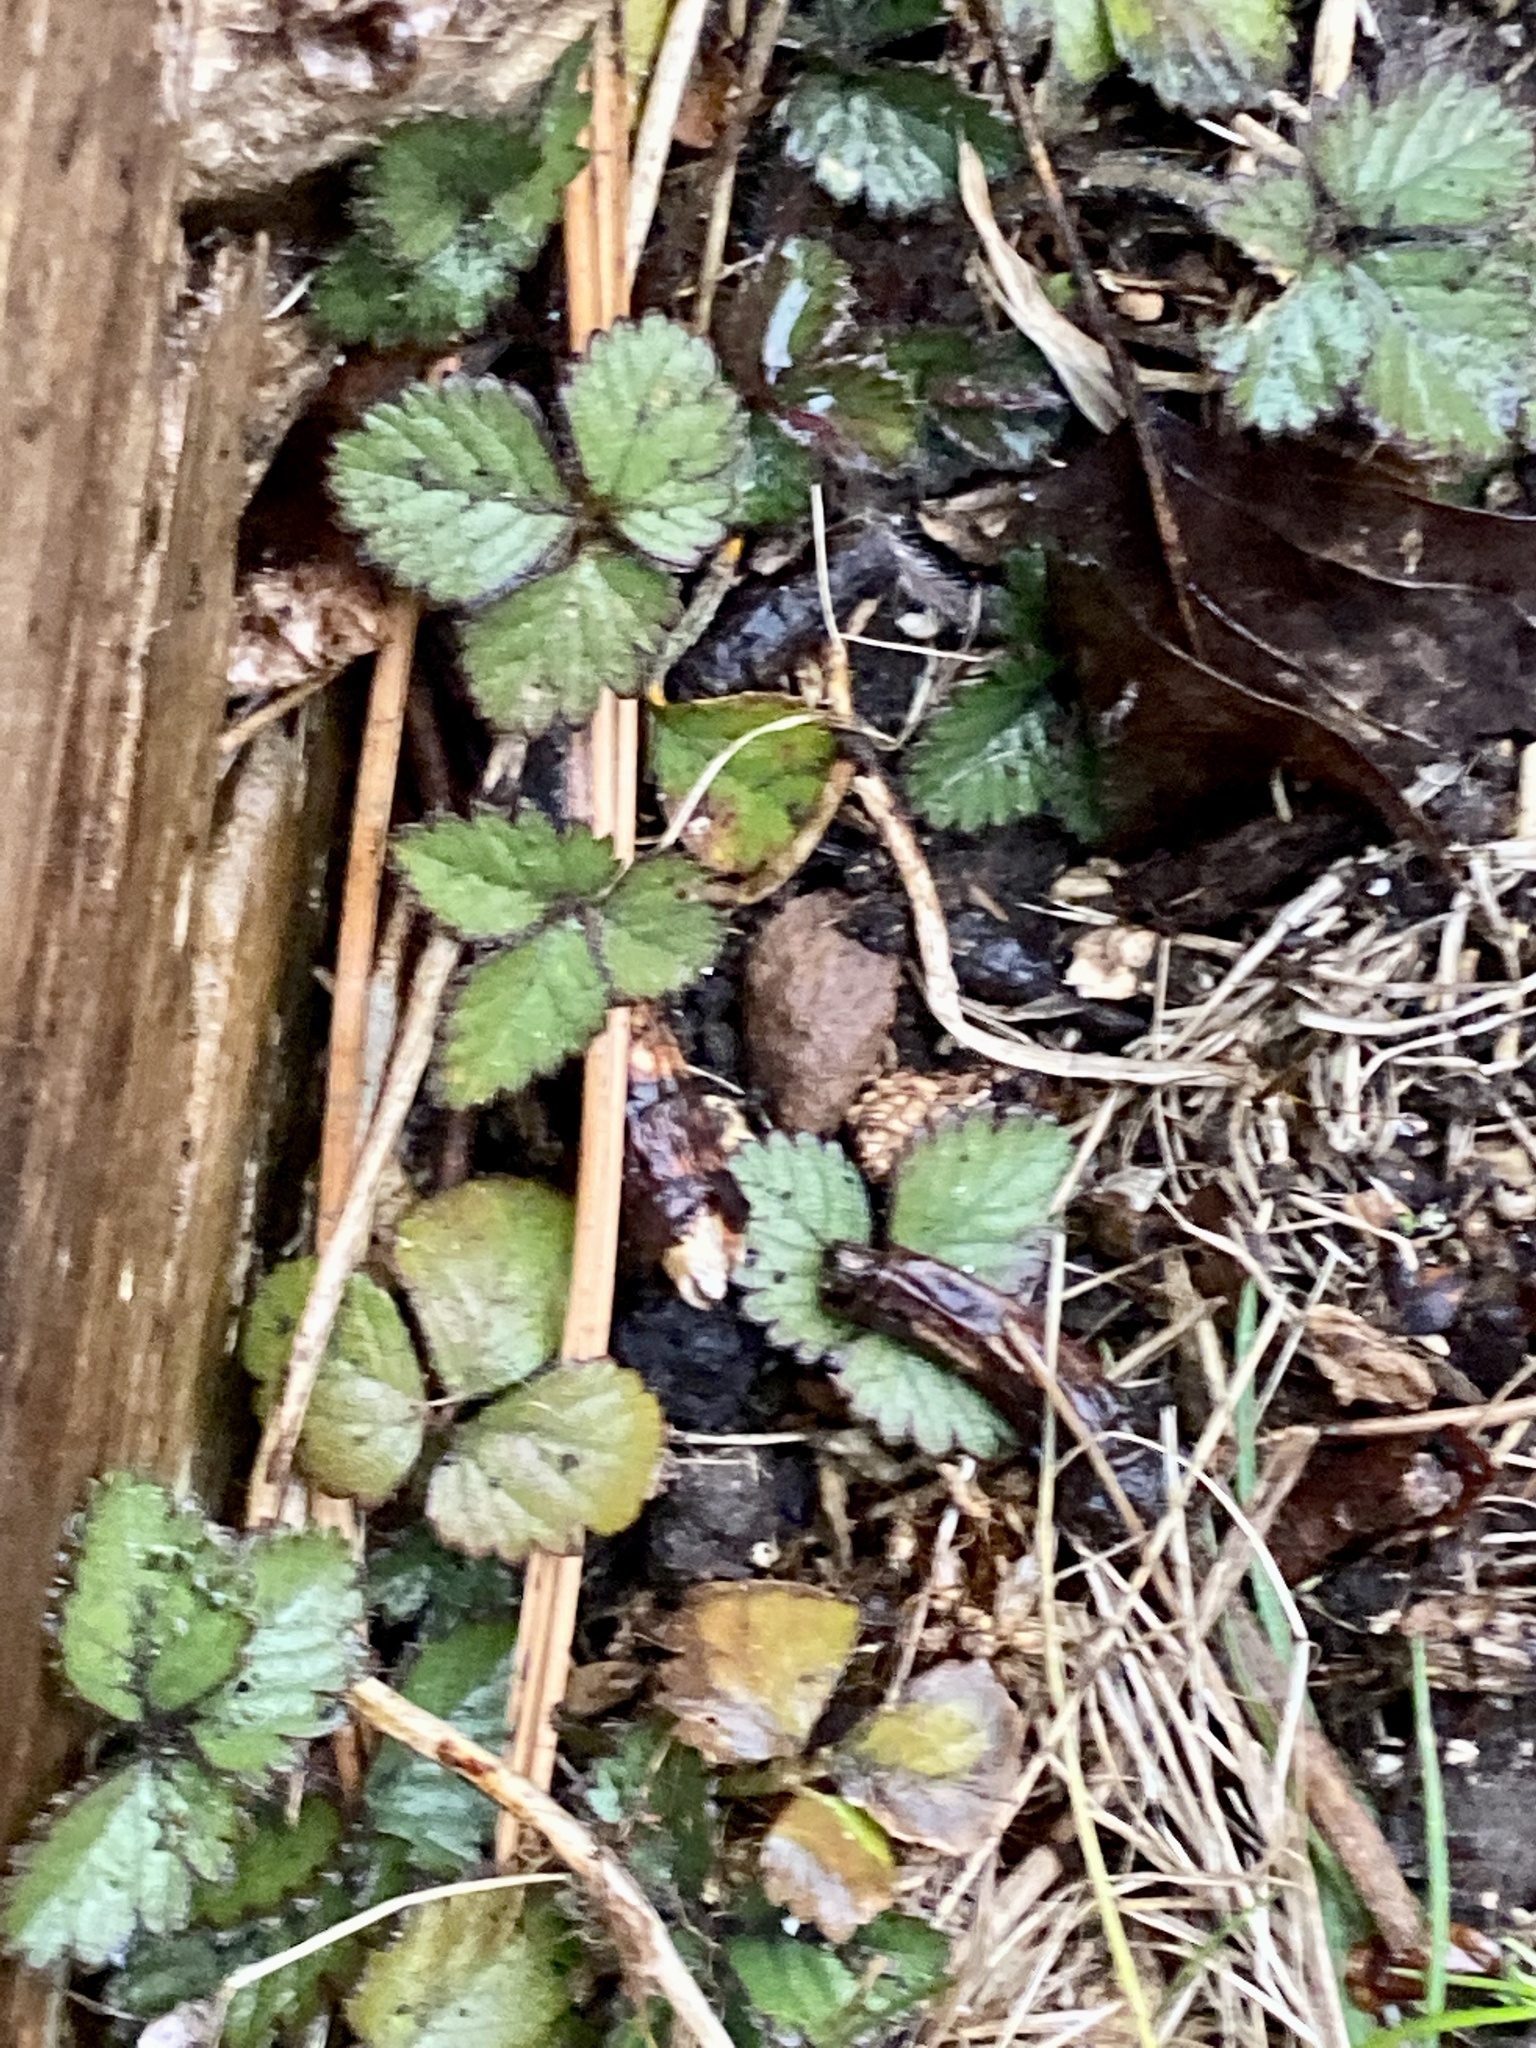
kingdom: Plantae
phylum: Tracheophyta
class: Magnoliopsida
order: Rosales
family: Rosaceae
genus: Potentilla
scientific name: Potentilla indica
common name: Yellow-flowered strawberry
